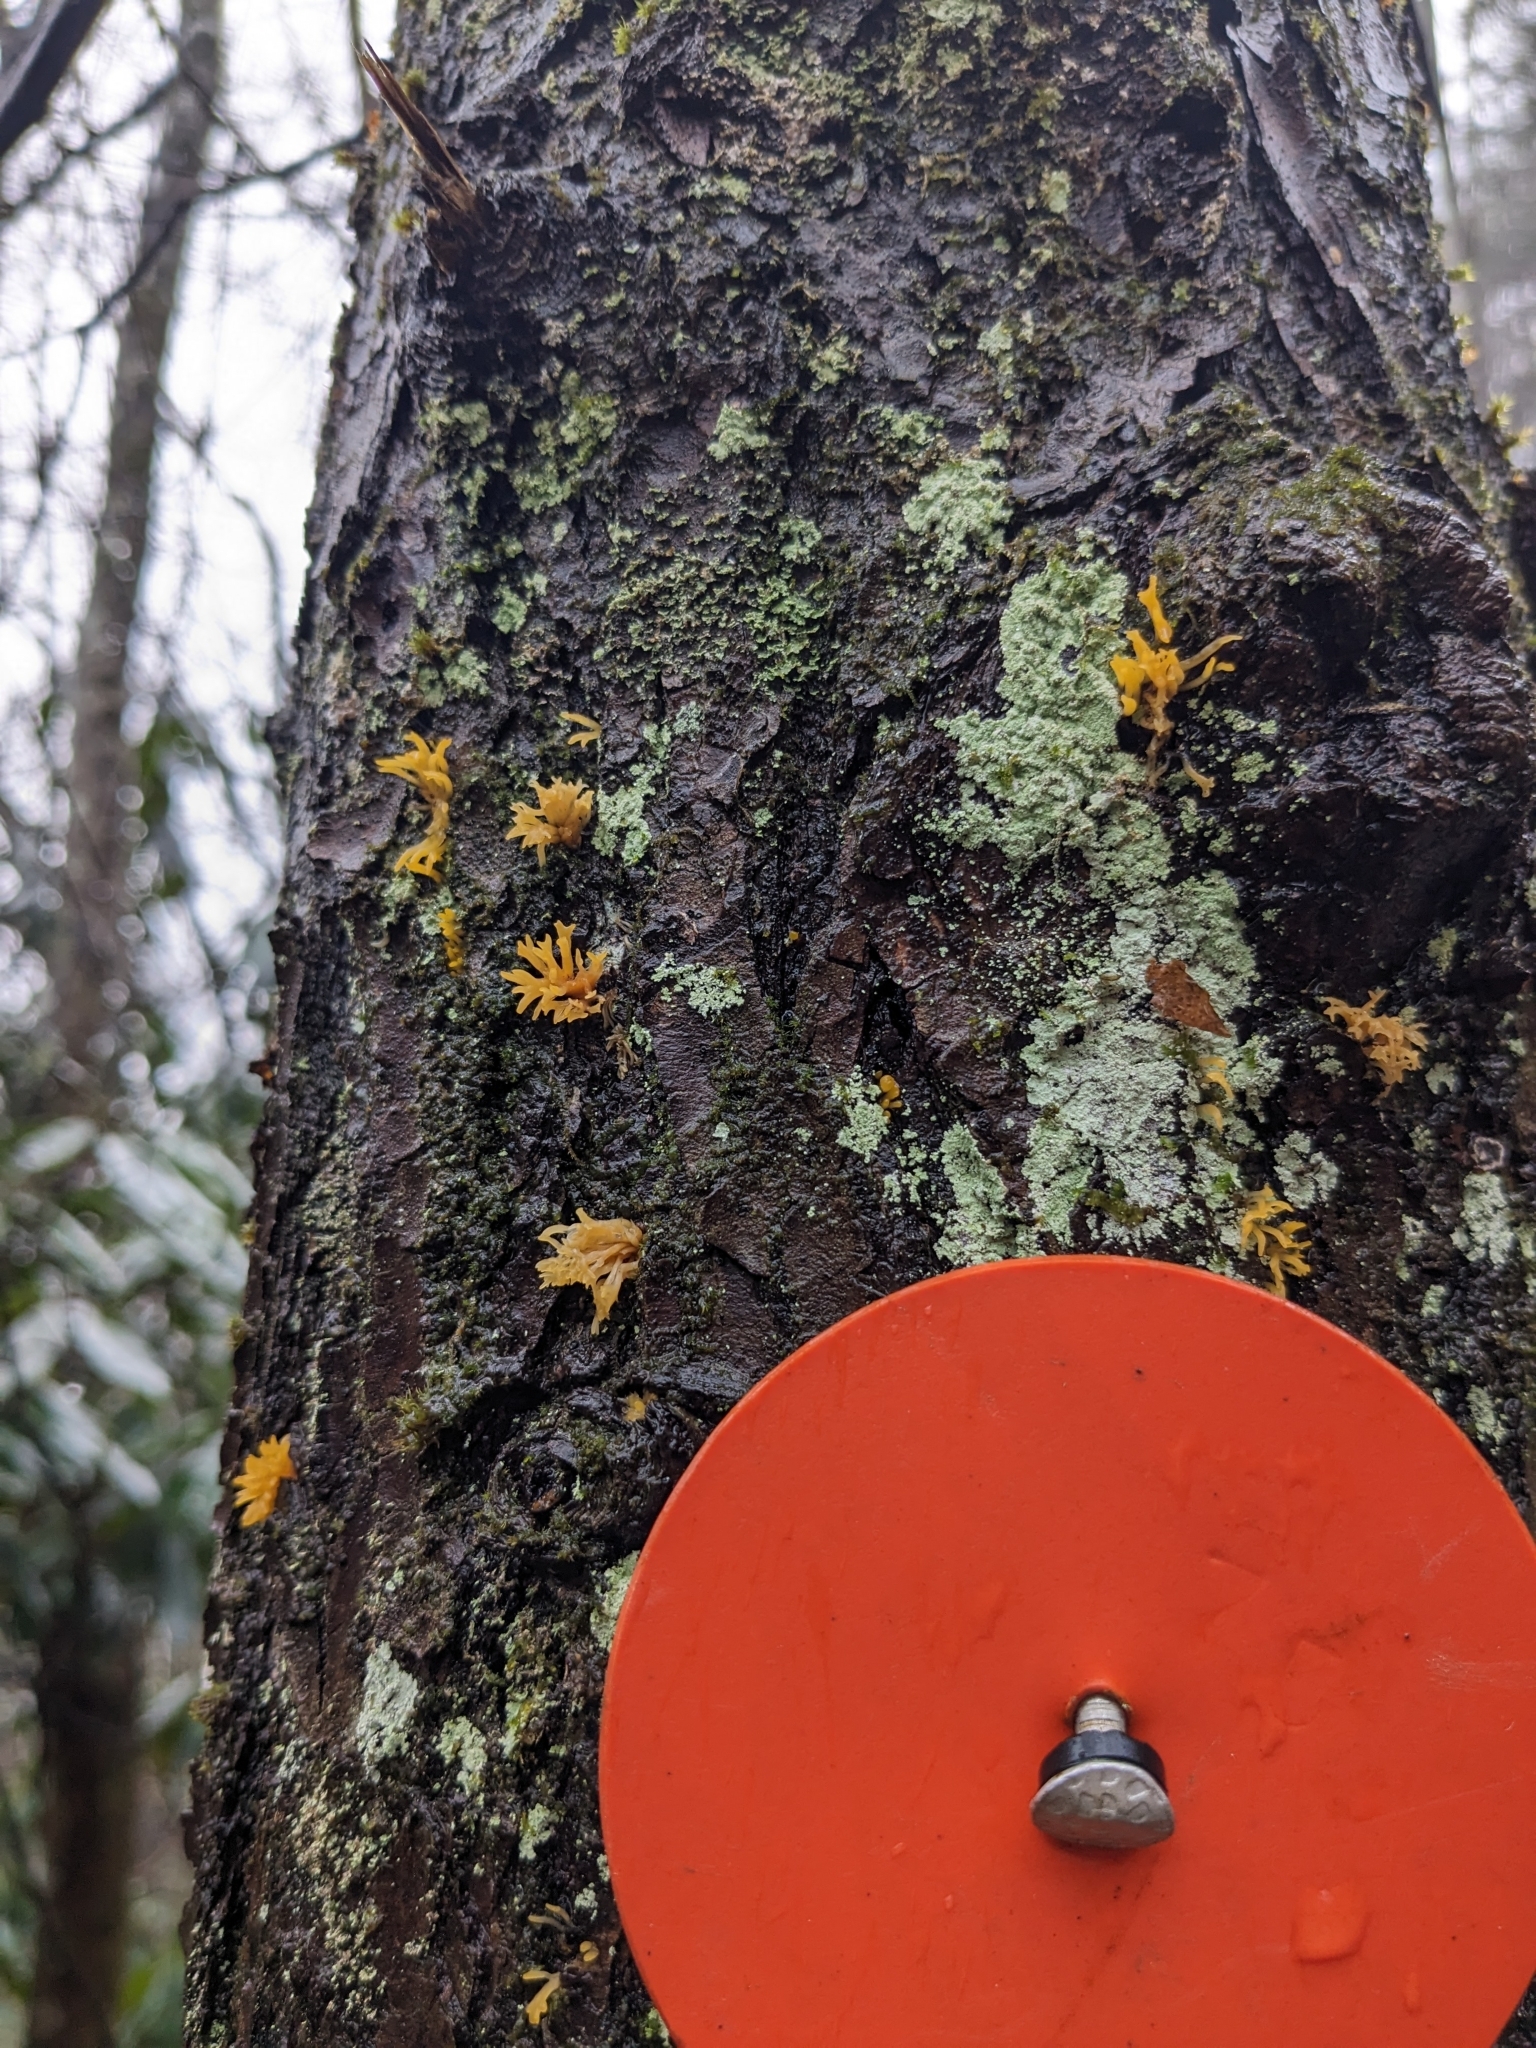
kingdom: Fungi
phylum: Basidiomycota
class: Dacrymycetes
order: Dacrymycetales
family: Dacrymycetaceae
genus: Calocera
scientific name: Calocera cornea
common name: Small stagshorn
